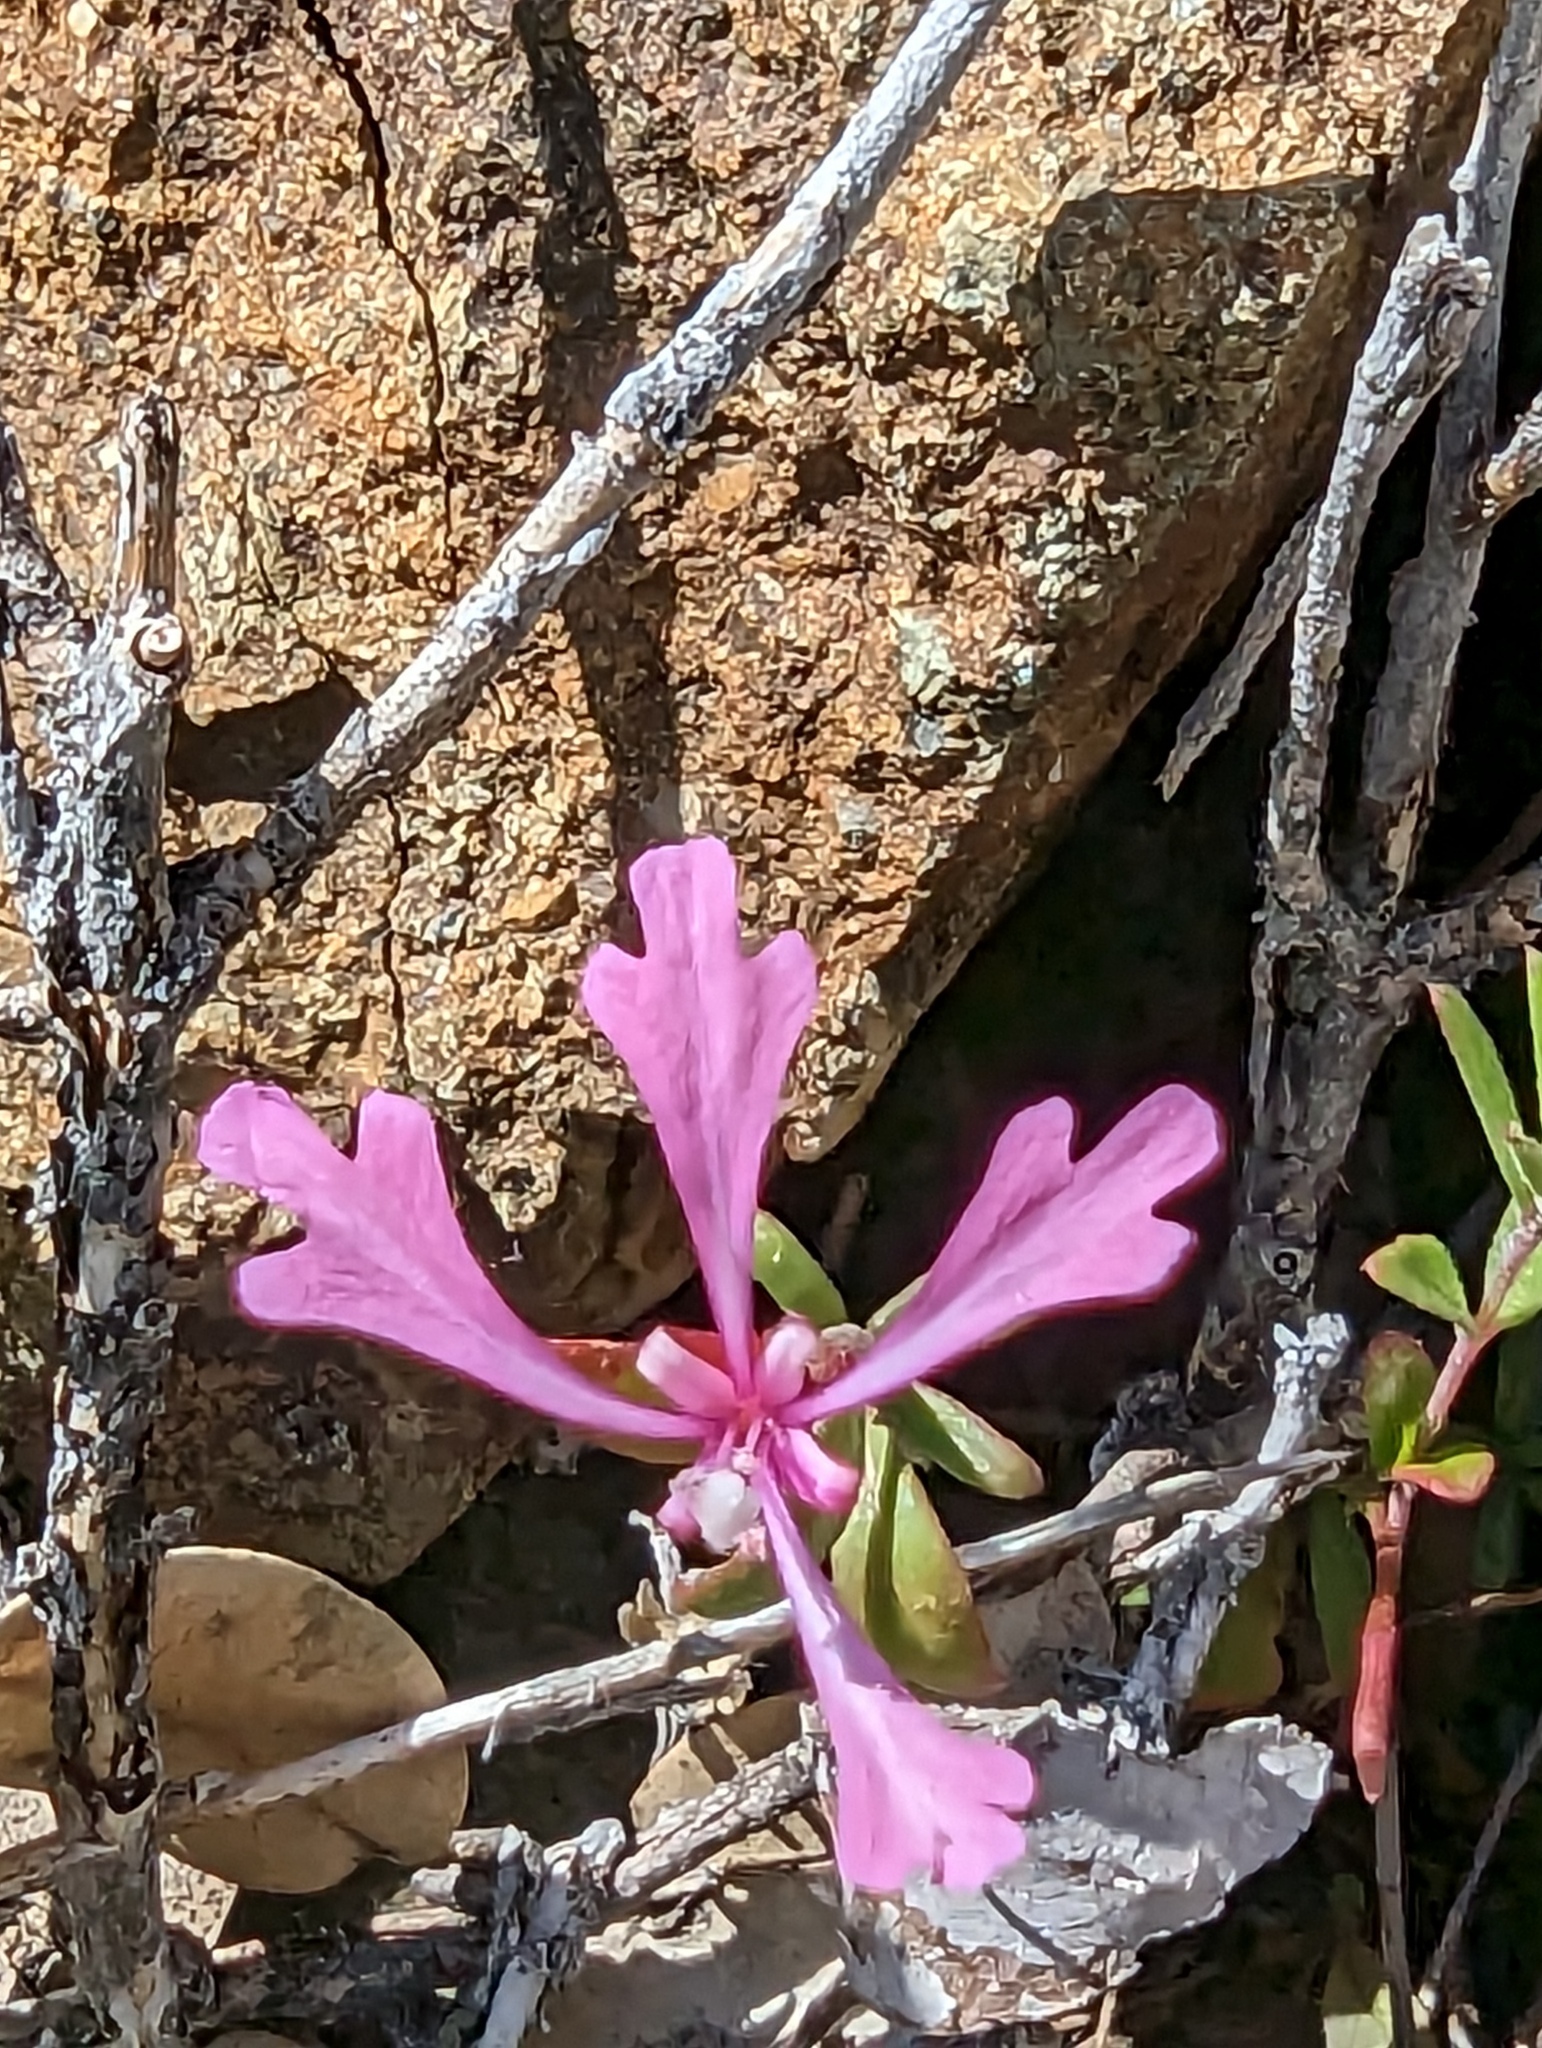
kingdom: Plantae
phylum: Tracheophyta
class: Magnoliopsida
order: Myrtales
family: Onagraceae
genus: Clarkia
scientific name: Clarkia concinna
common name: Red-ribbons
